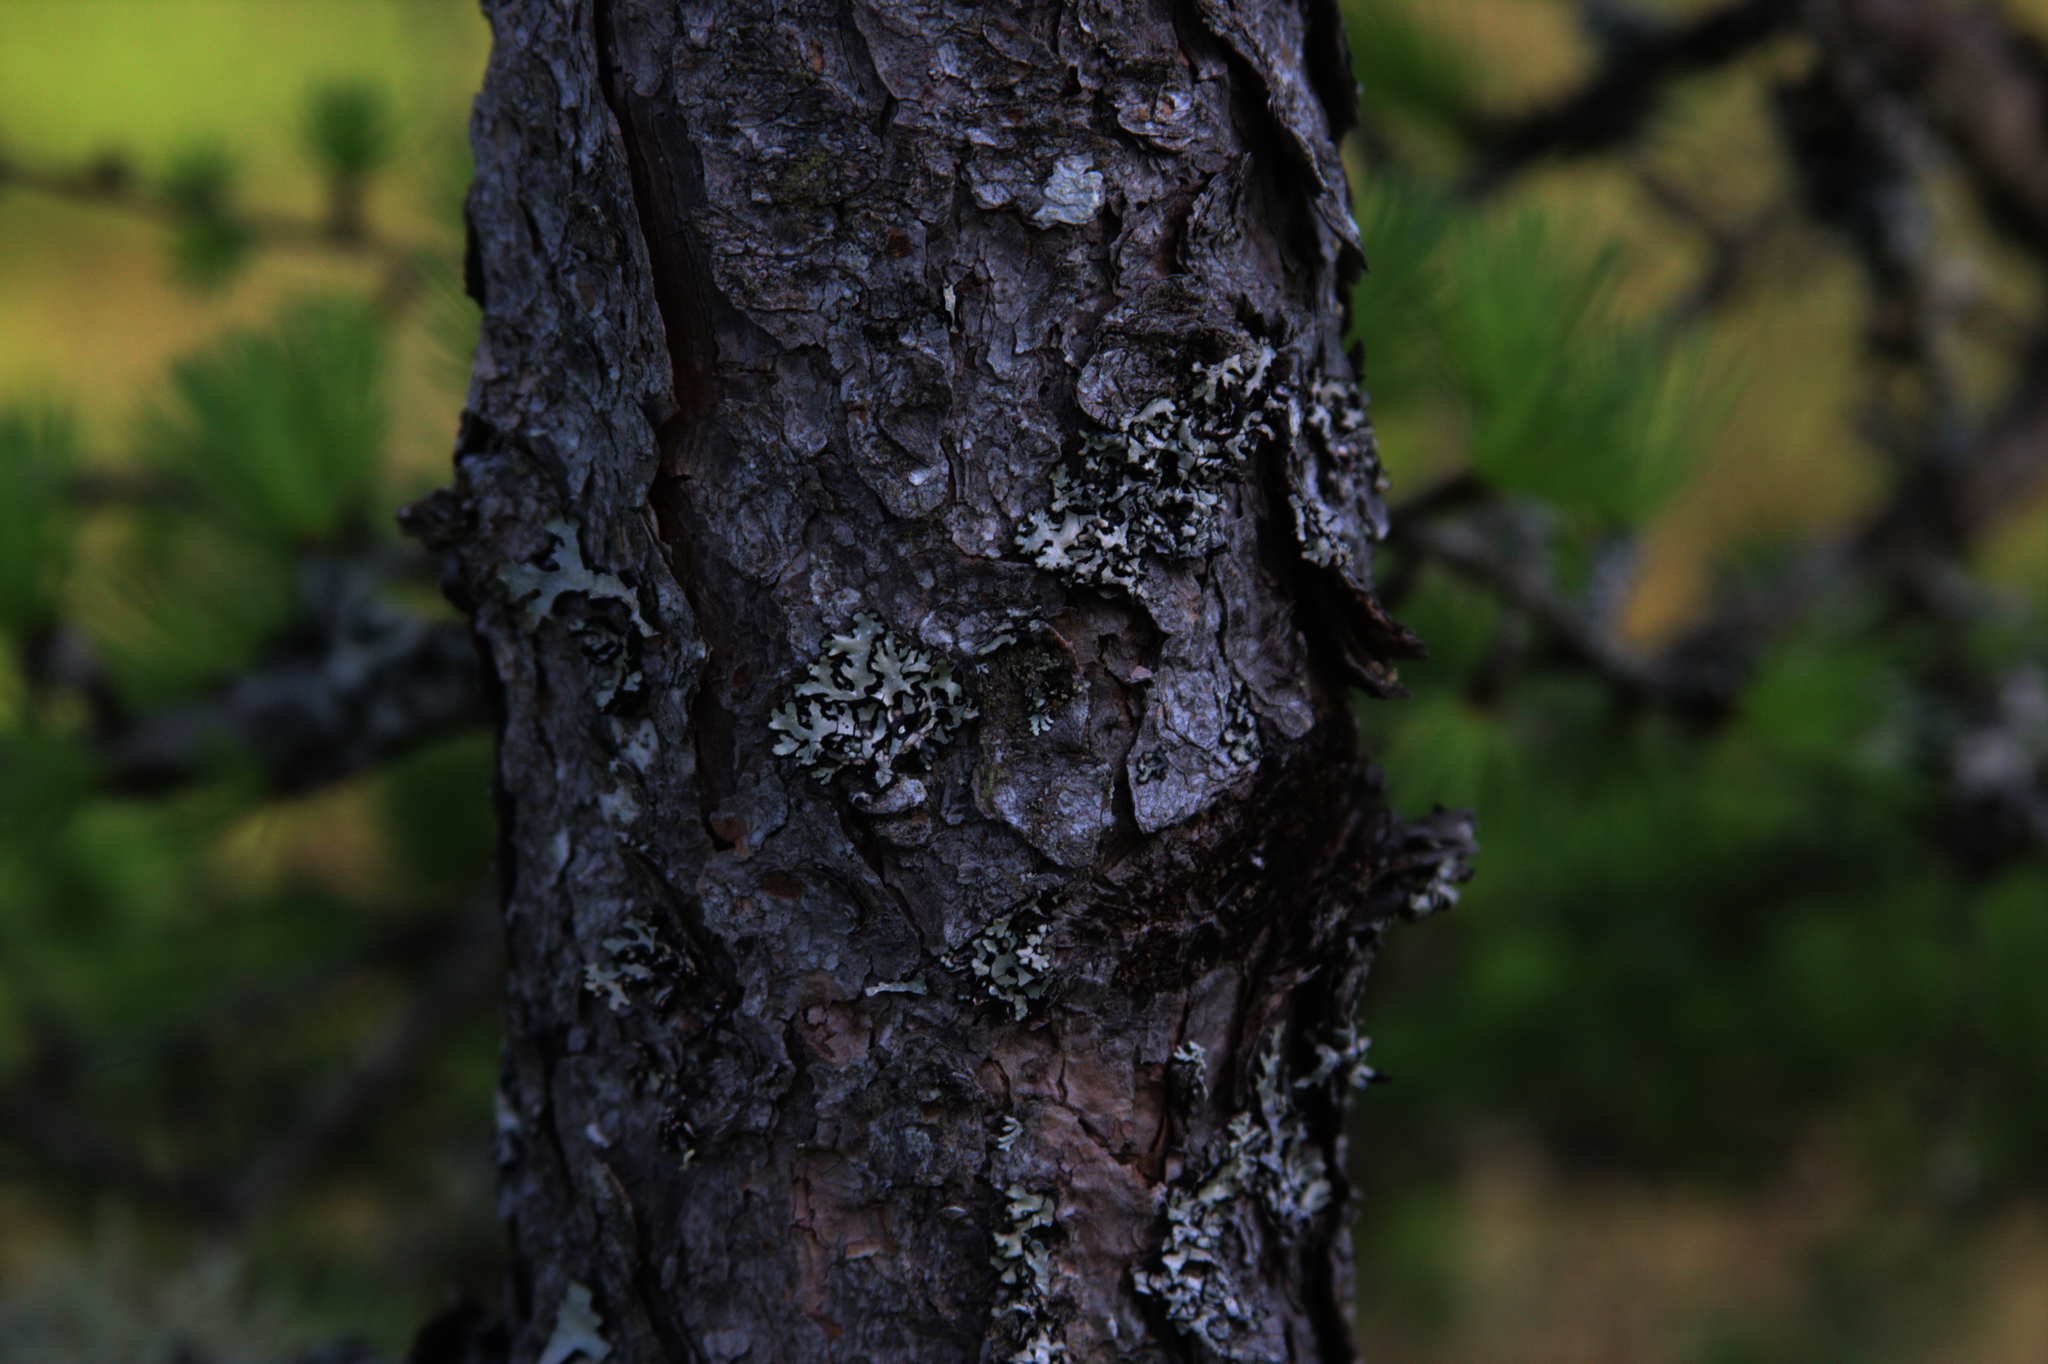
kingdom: Plantae
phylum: Tracheophyta
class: Pinopsida
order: Pinales
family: Pinaceae
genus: Larix
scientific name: Larix laricina
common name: American larch
